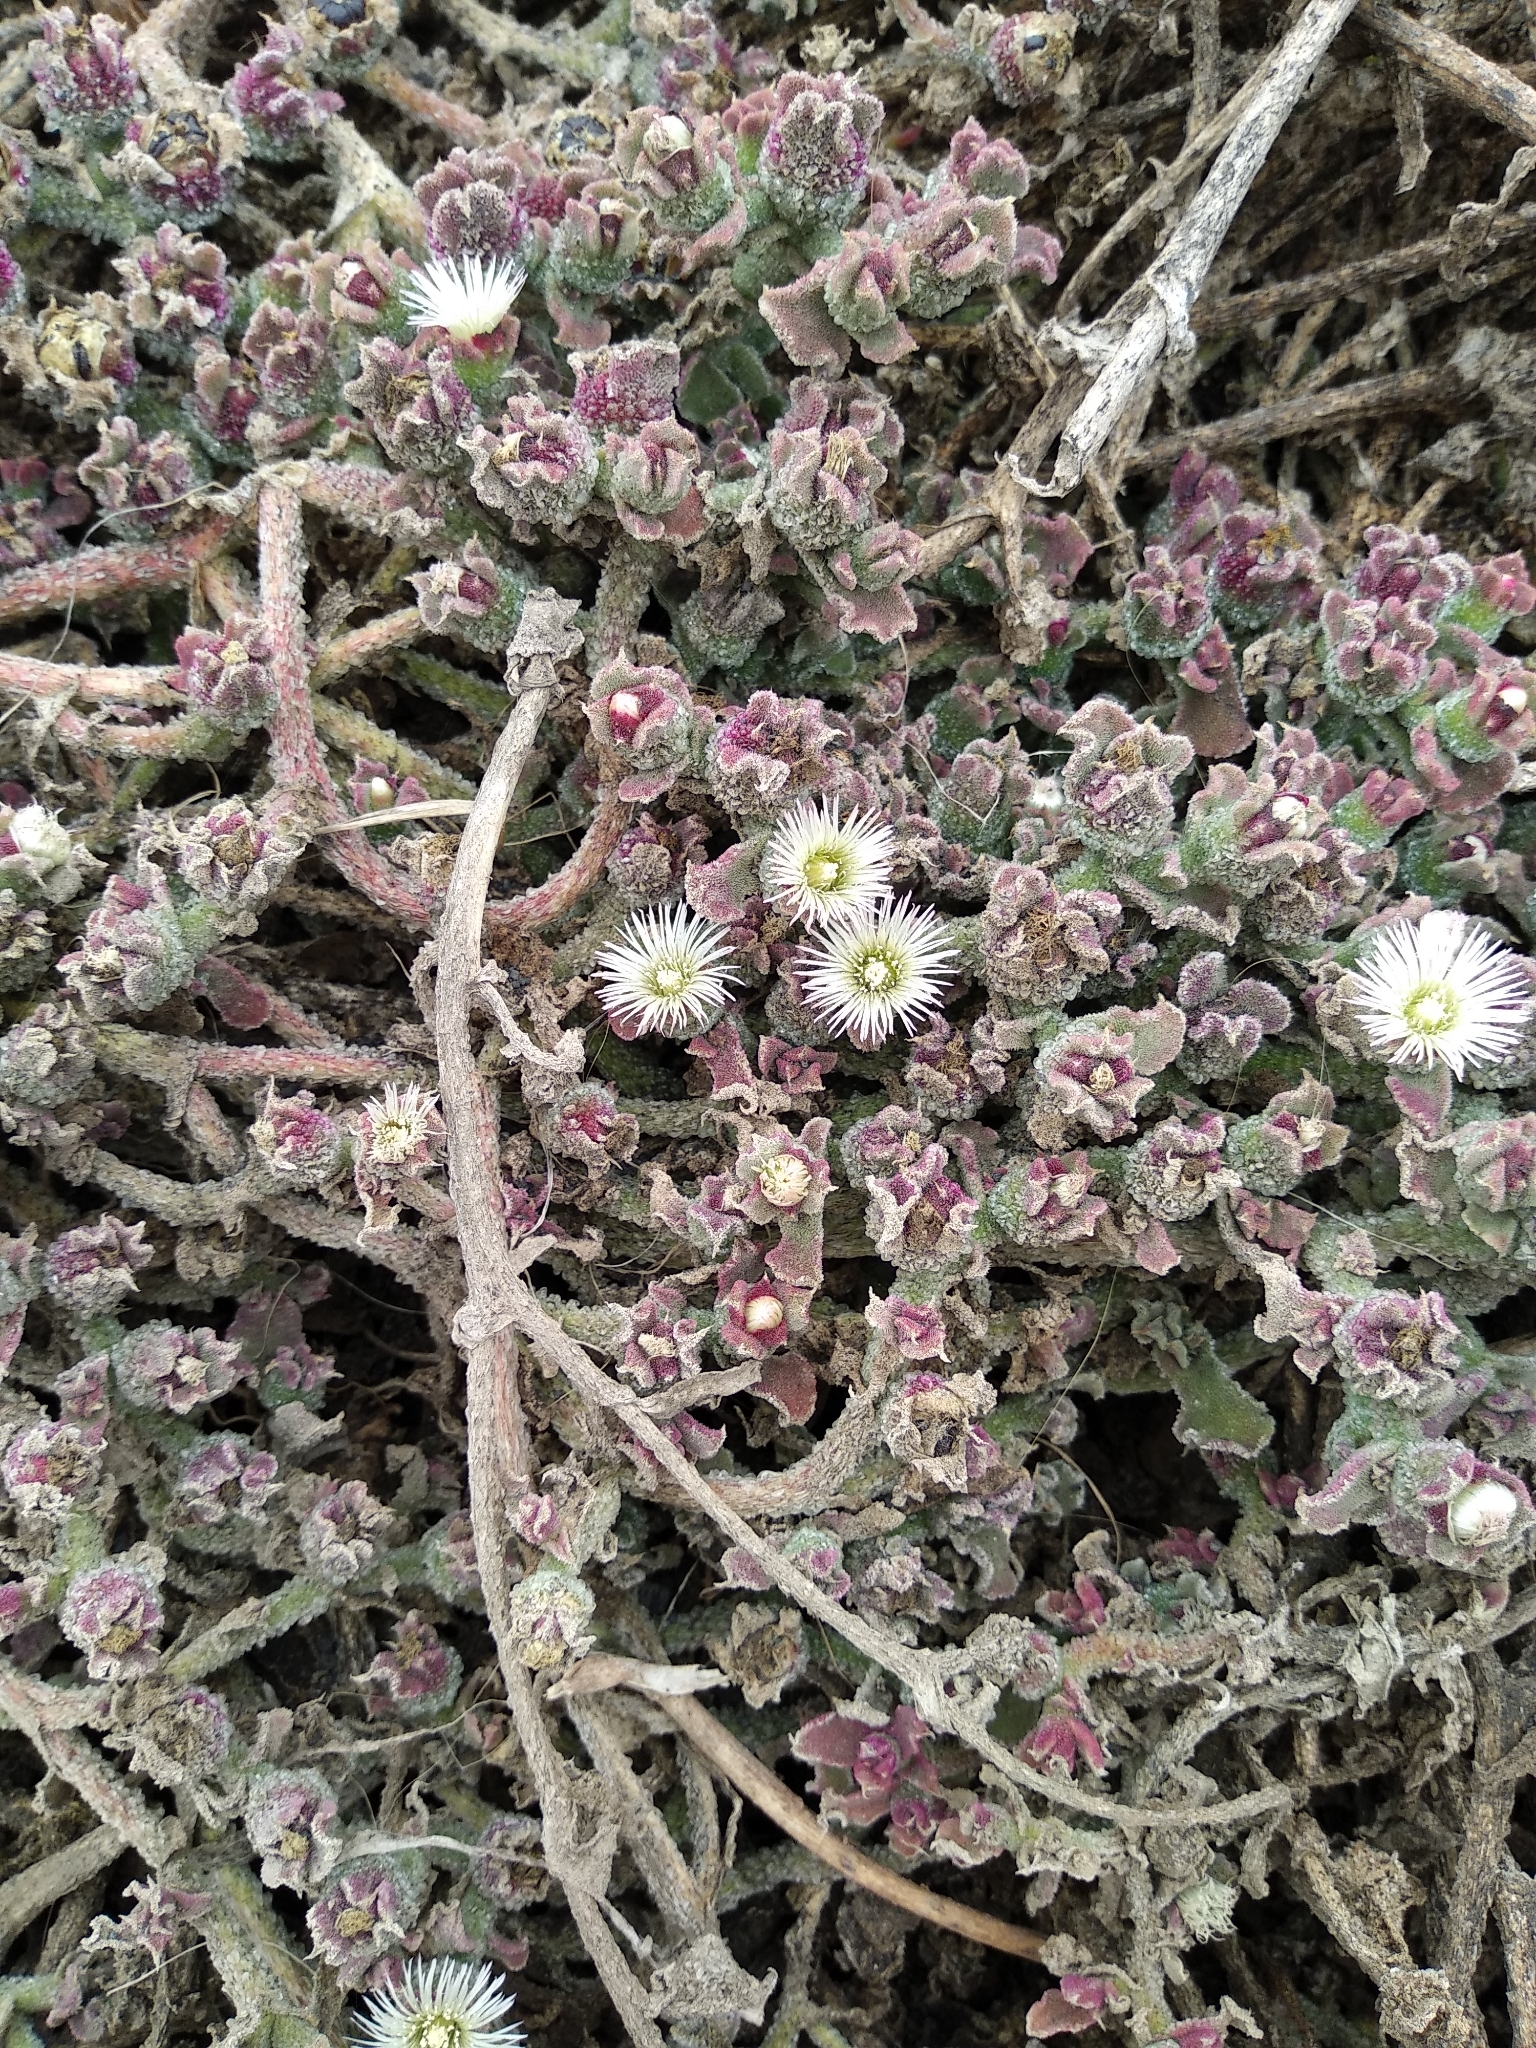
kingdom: Plantae
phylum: Tracheophyta
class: Magnoliopsida
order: Caryophyllales
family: Aizoaceae
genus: Mesembryanthemum
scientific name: Mesembryanthemum crystallinum
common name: Common iceplant
